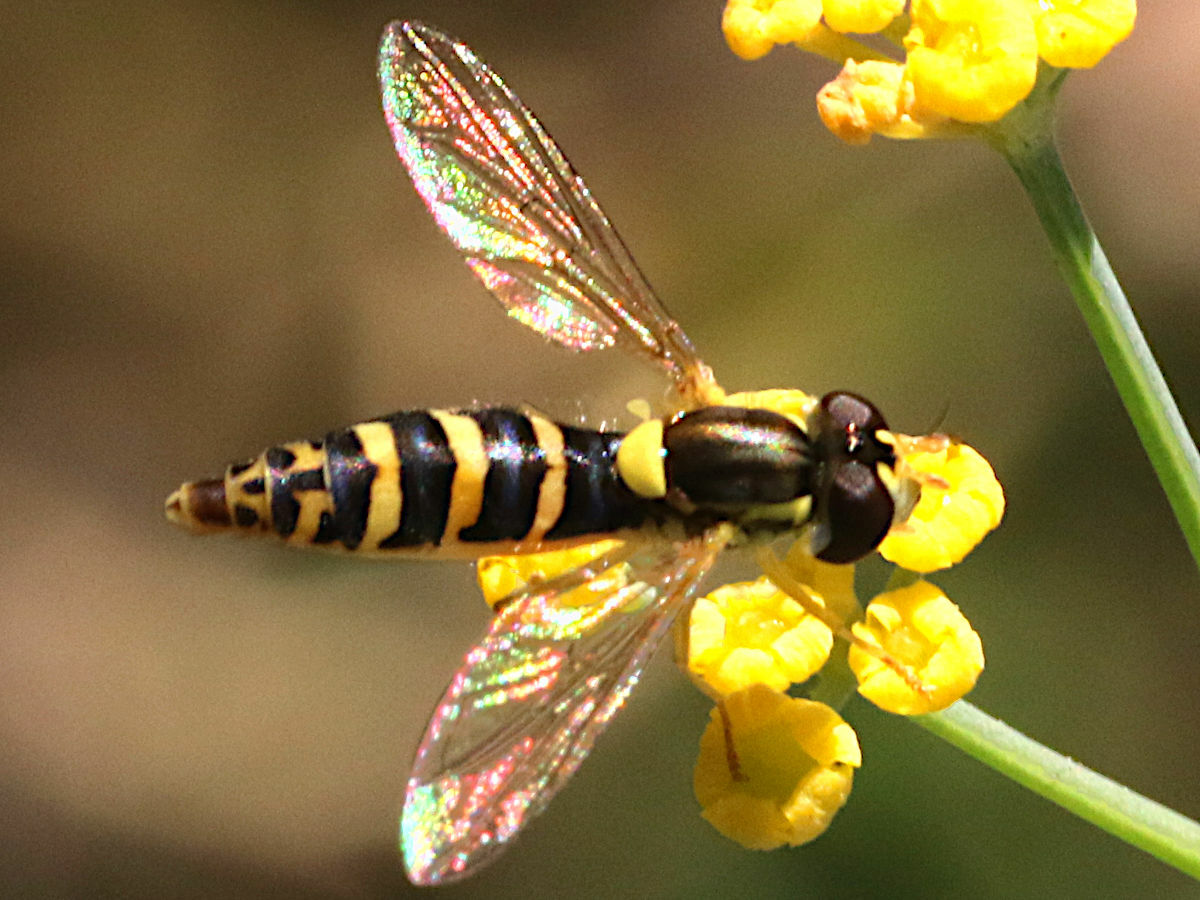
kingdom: Animalia
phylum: Arthropoda
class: Insecta
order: Diptera
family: Syrphidae
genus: Sphaerophoria
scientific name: Sphaerophoria
